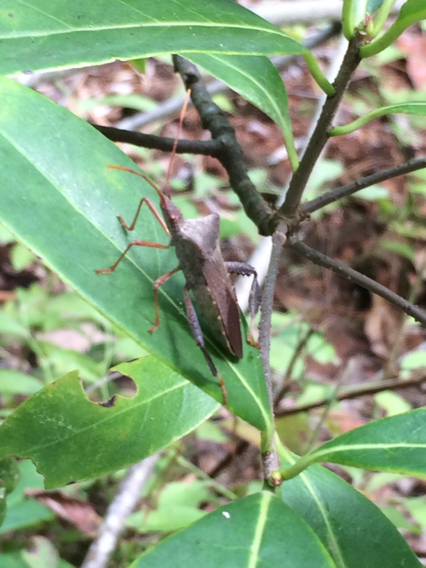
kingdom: Animalia
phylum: Arthropoda
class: Insecta
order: Hemiptera
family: Coreidae
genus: Leptoglossus
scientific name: Leptoglossus fulvicornis
